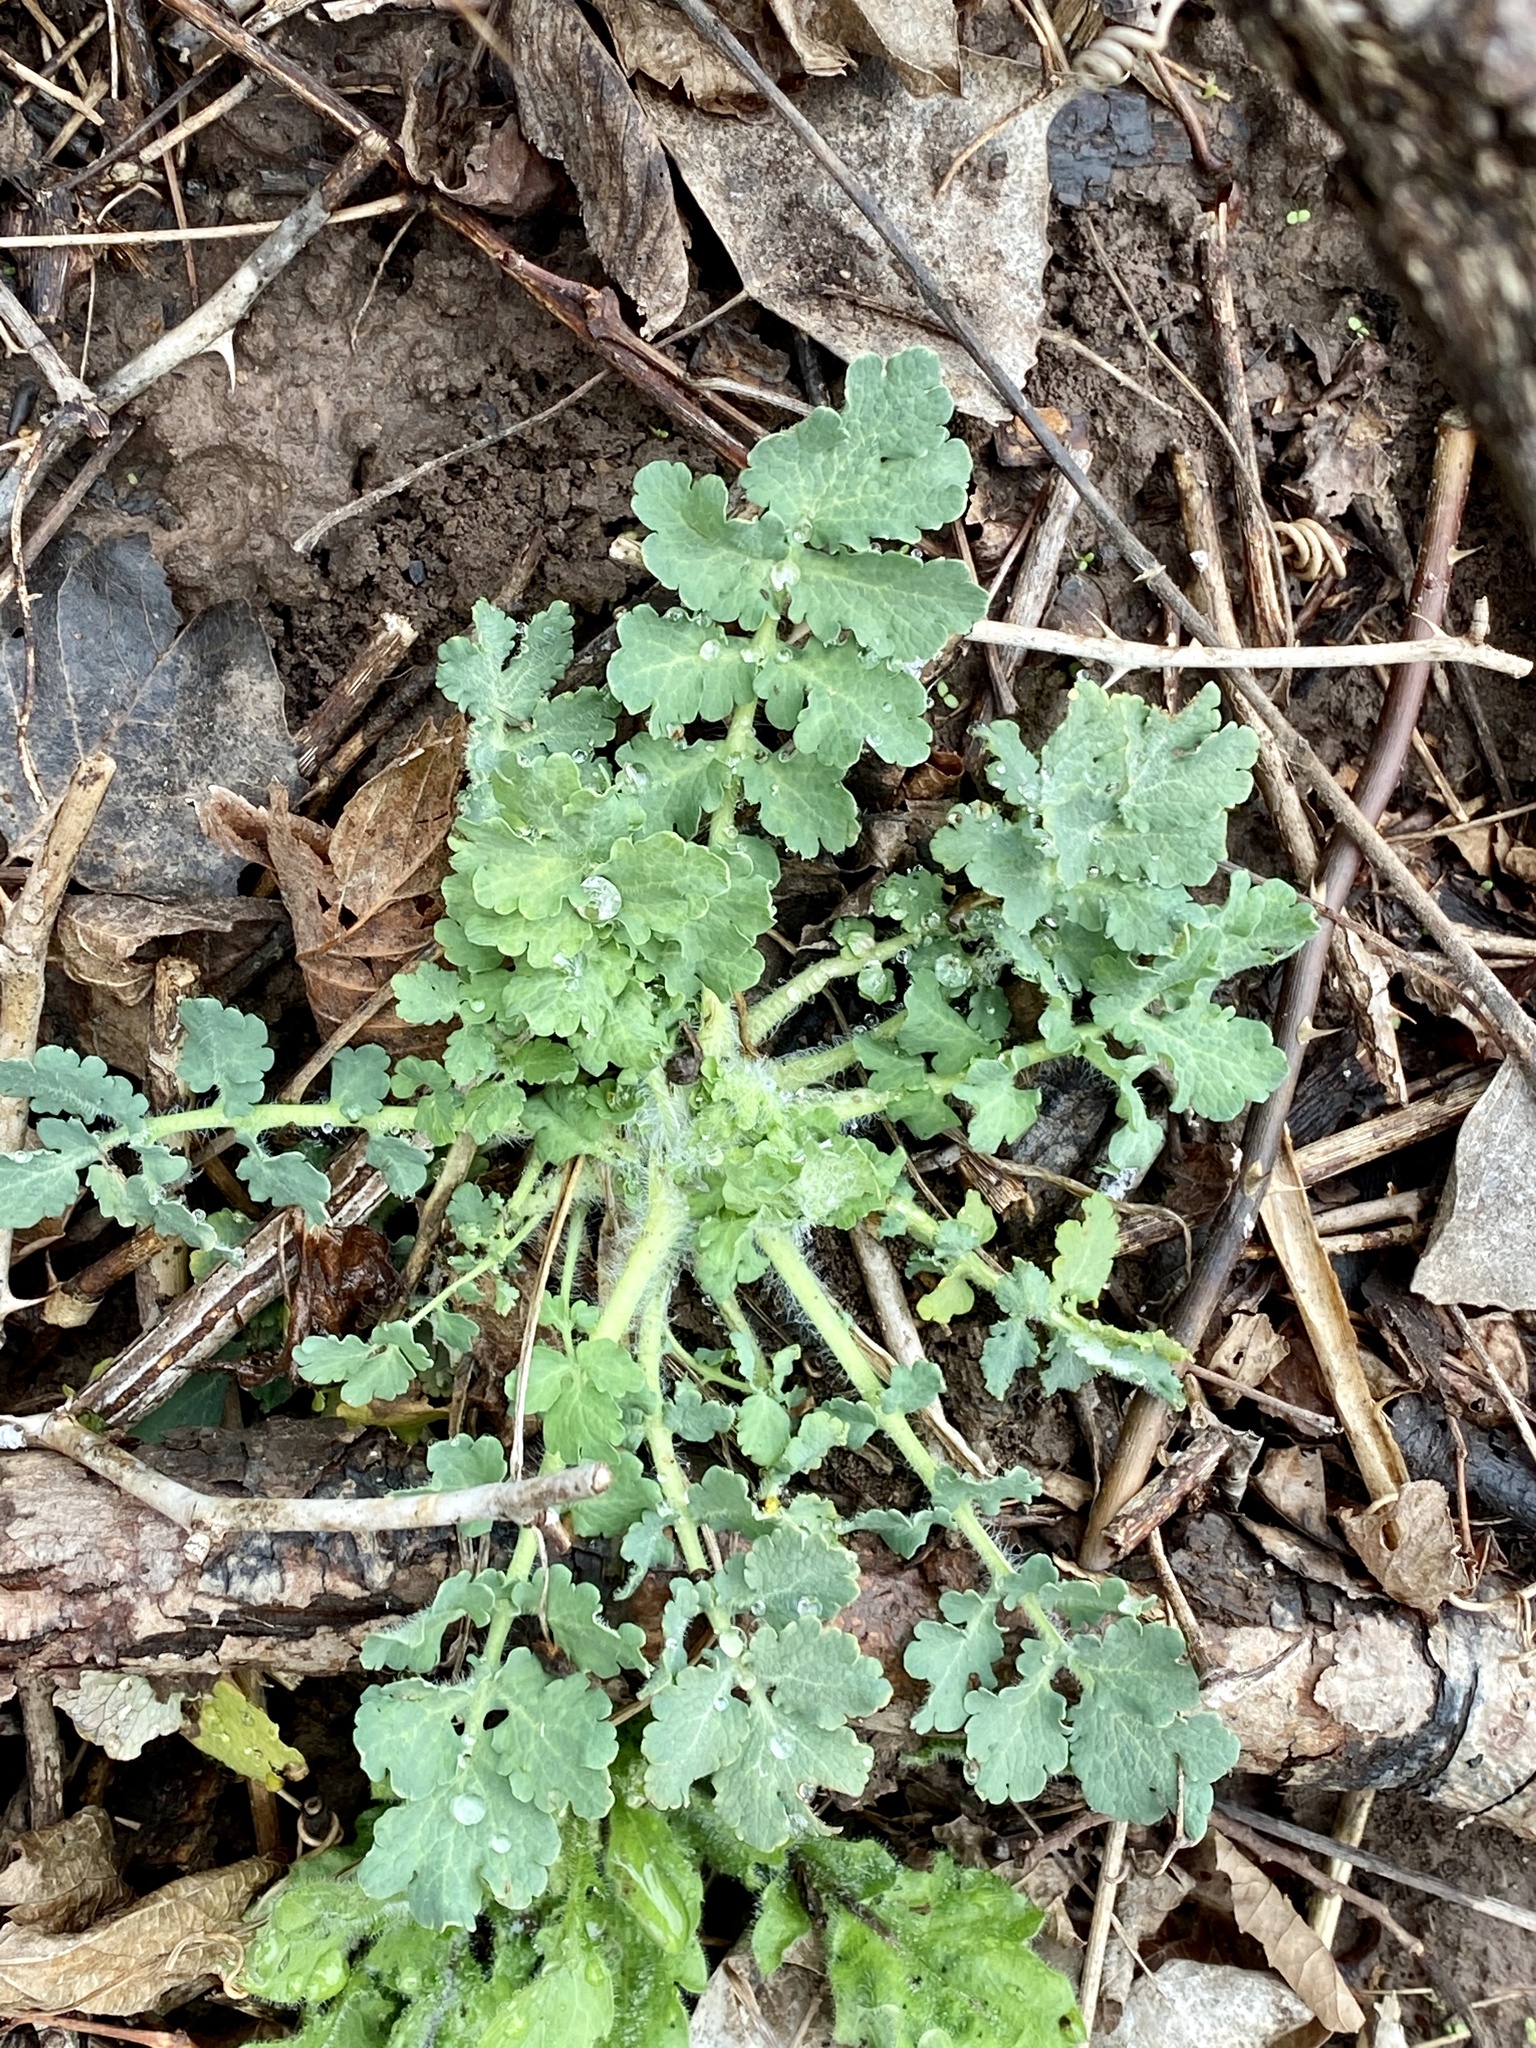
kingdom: Plantae
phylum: Tracheophyta
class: Magnoliopsida
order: Ranunculales
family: Papaveraceae
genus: Chelidonium
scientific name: Chelidonium majus
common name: Greater celandine
